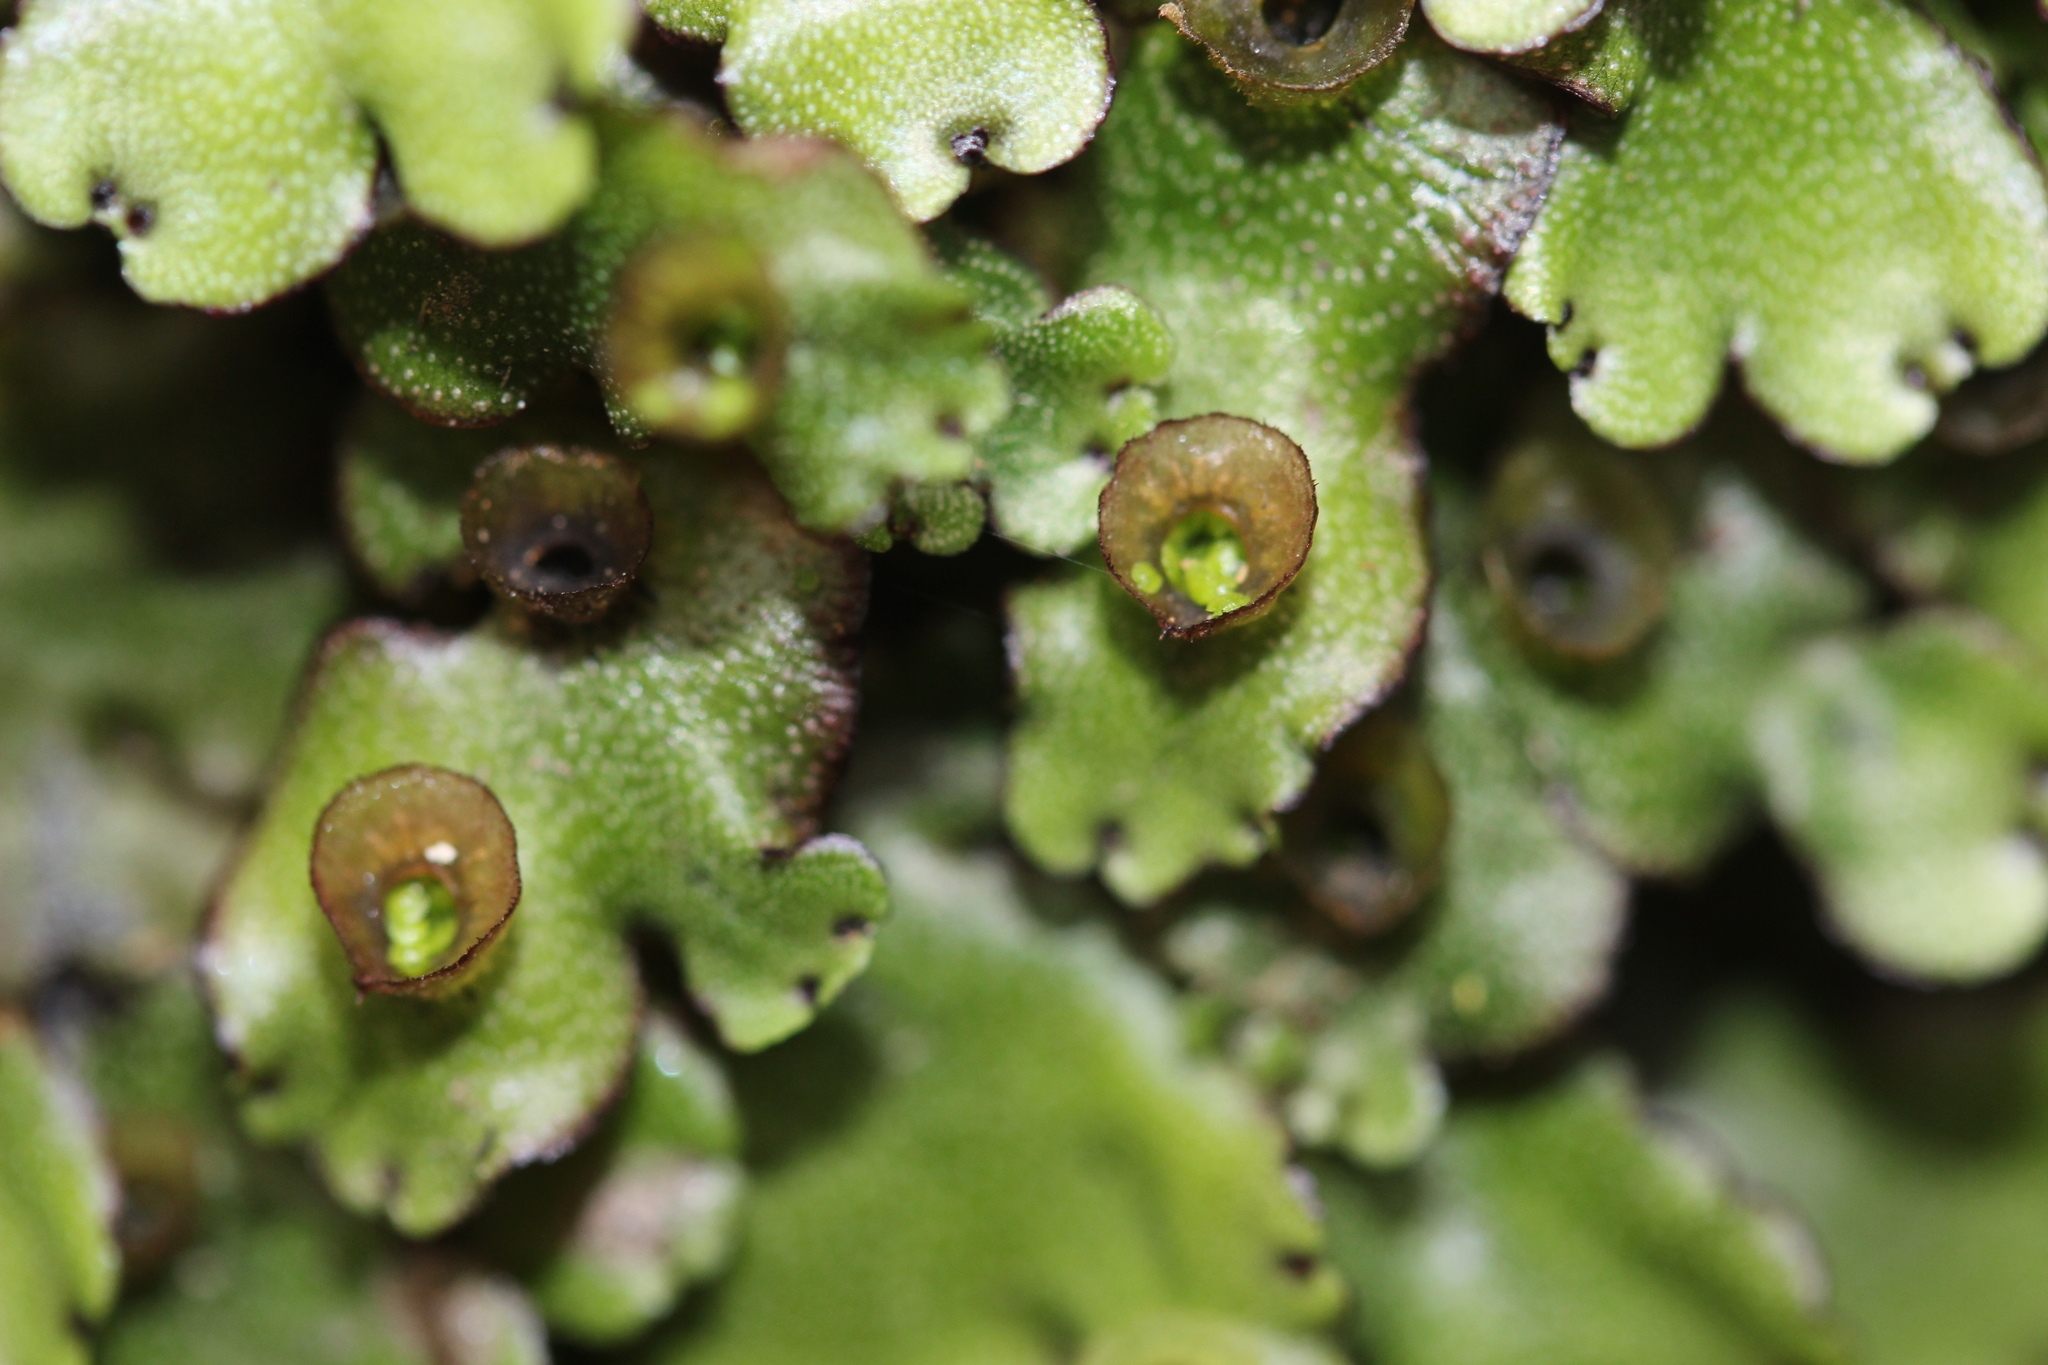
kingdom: Plantae
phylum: Marchantiophyta
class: Marchantiopsida
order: Marchantiales
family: Marchantiaceae
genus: Marchantia
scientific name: Marchantia foliacea
